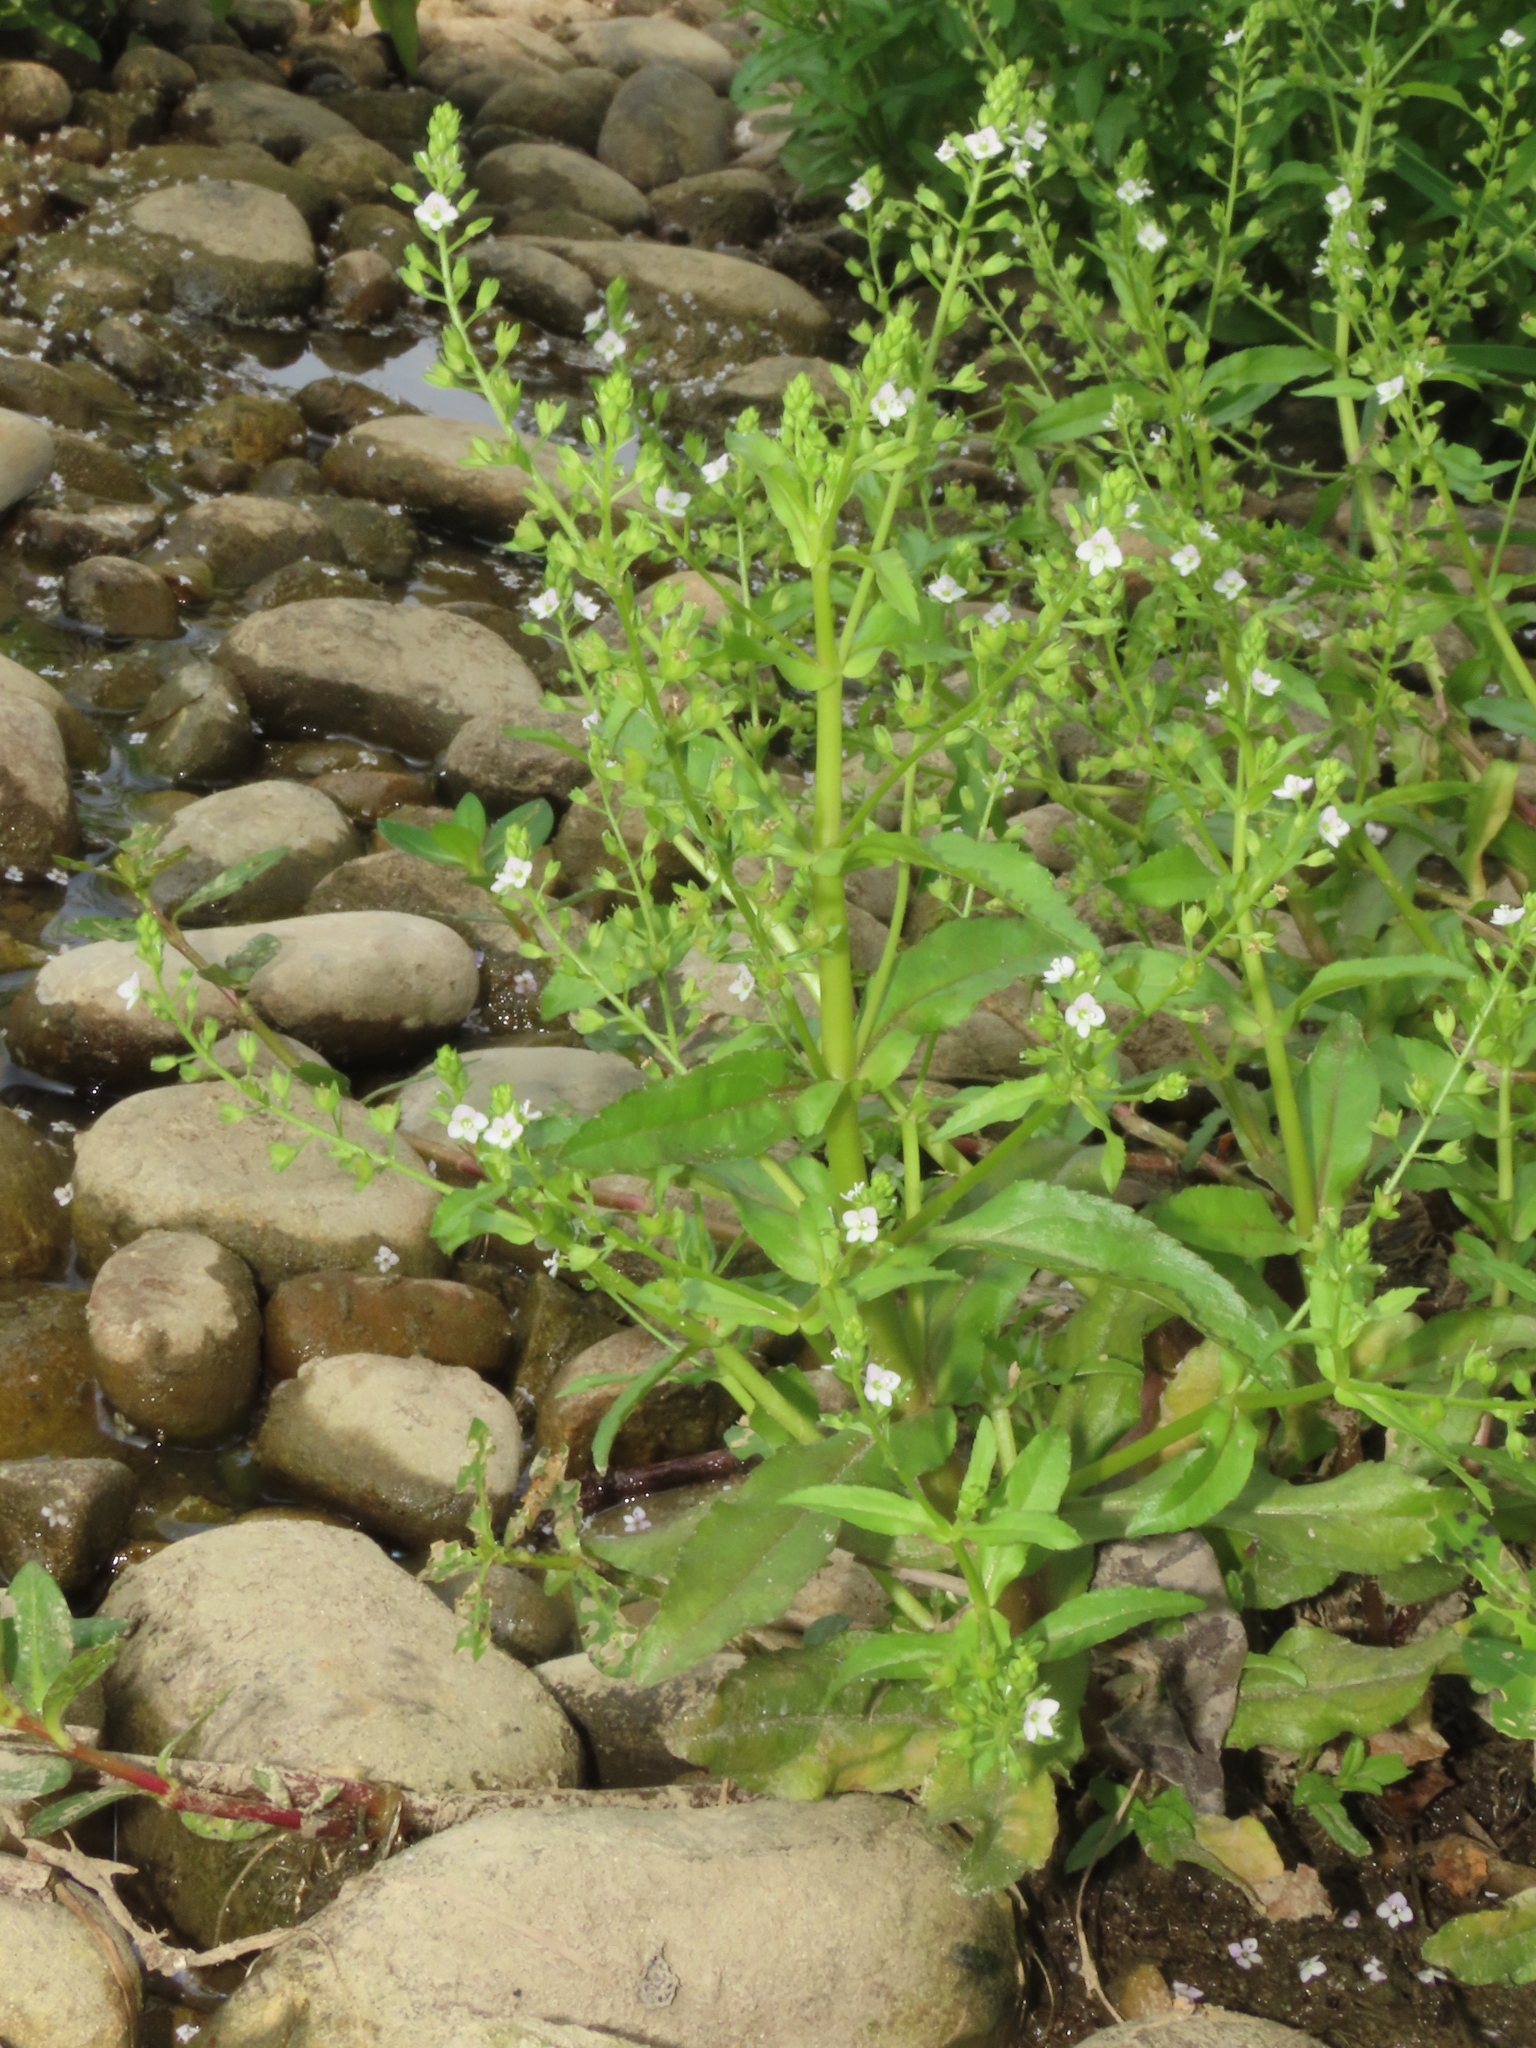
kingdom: Plantae
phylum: Tracheophyta
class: Magnoliopsida
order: Lamiales
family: Plantaginaceae
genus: Veronica
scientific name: Veronica undulata
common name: Undulate speedwell
